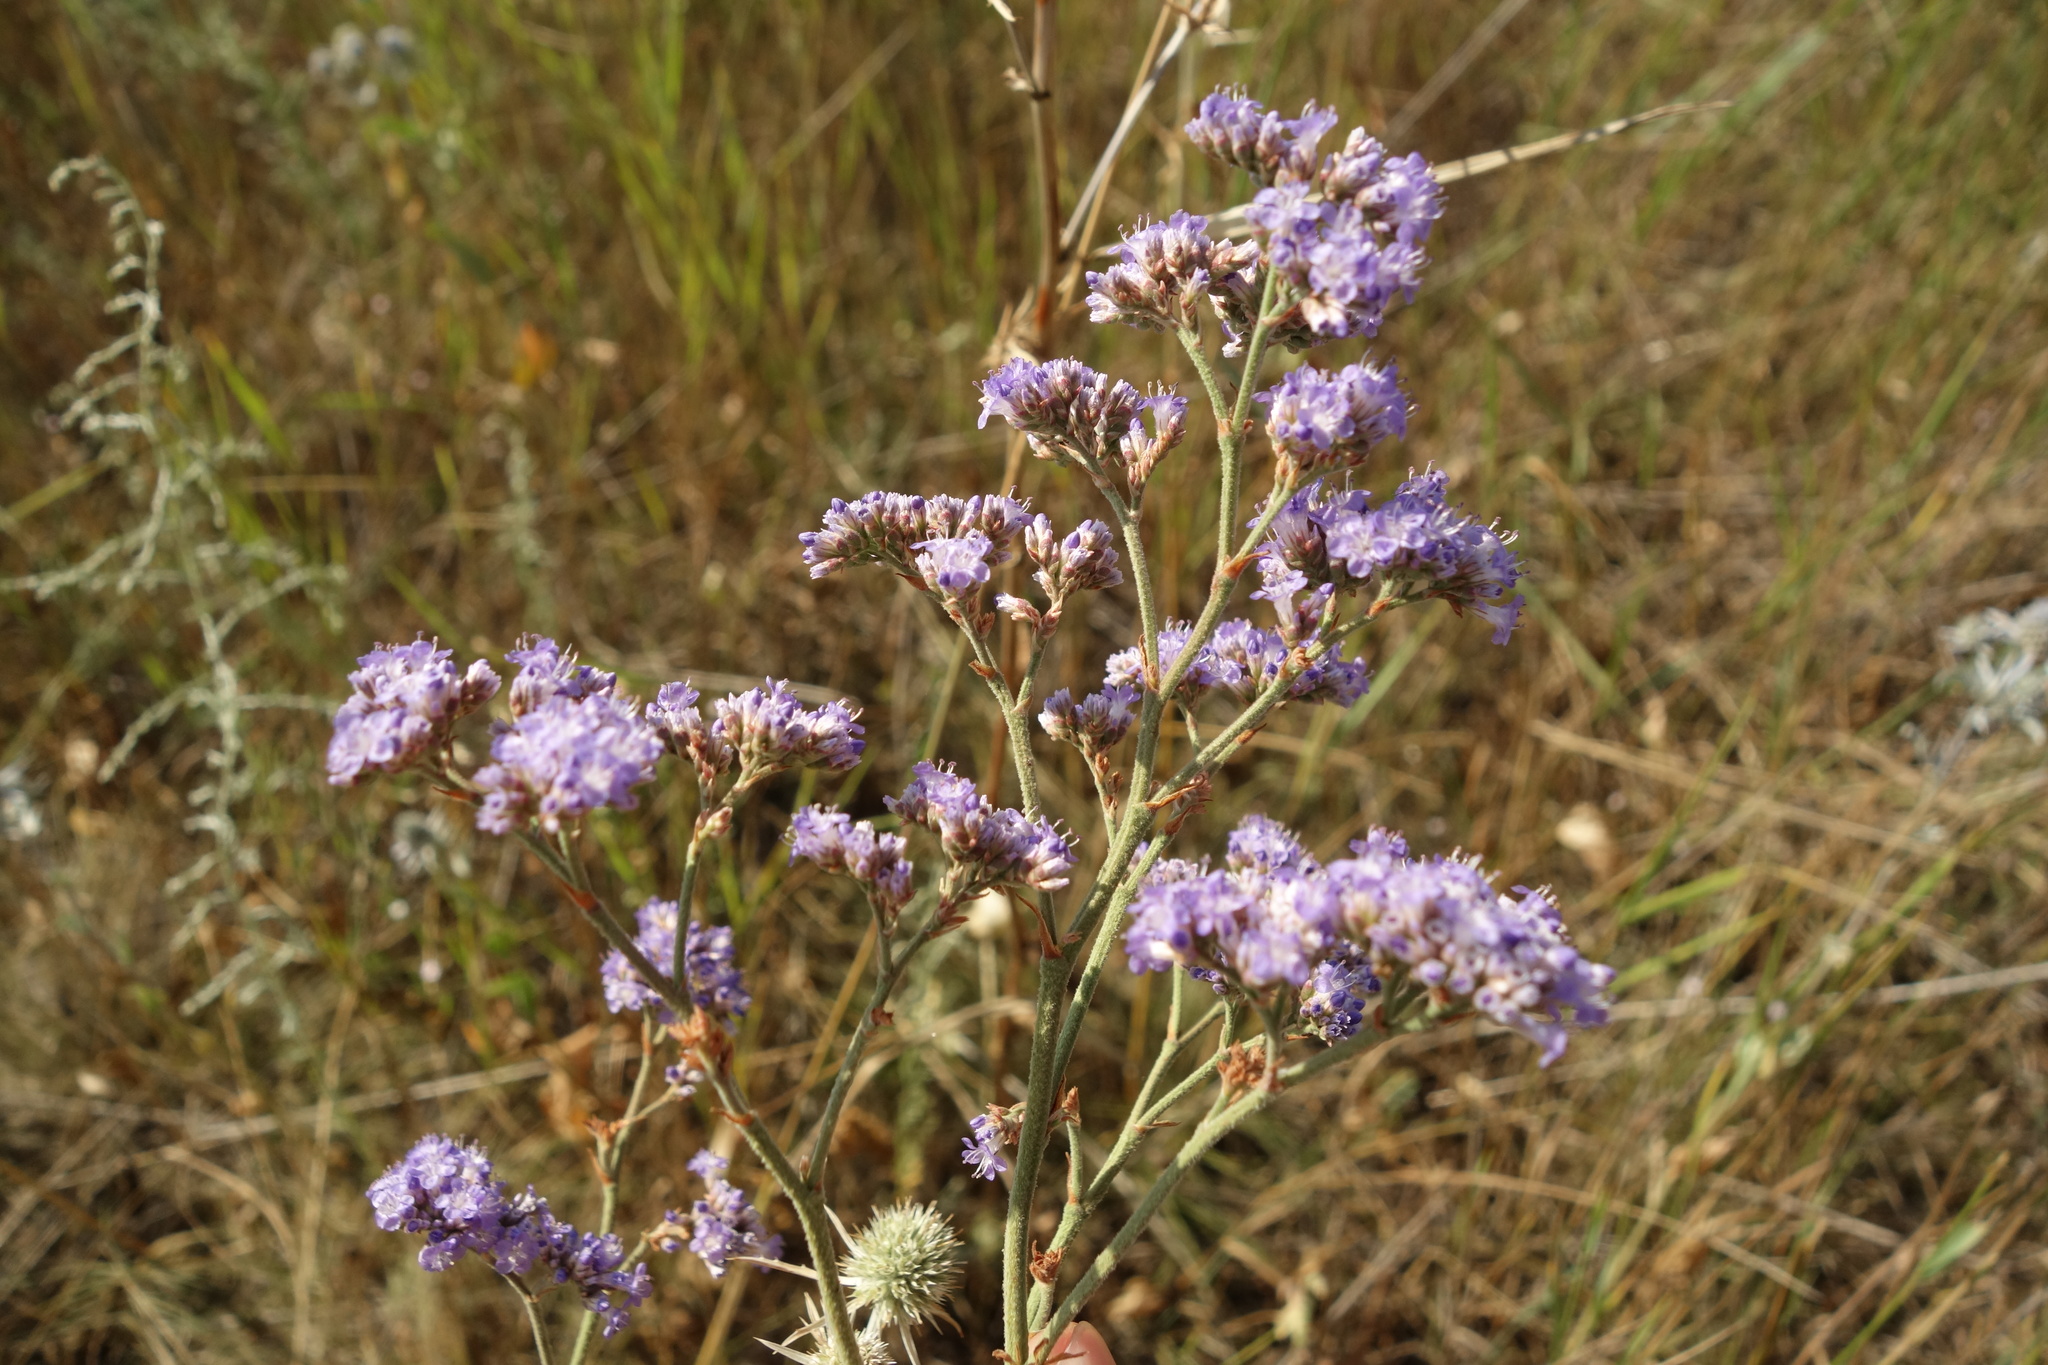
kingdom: Plantae
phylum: Tracheophyta
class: Magnoliopsida
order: Caryophyllales
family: Plumbaginaceae
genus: Limonium
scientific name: Limonium tomentellum
